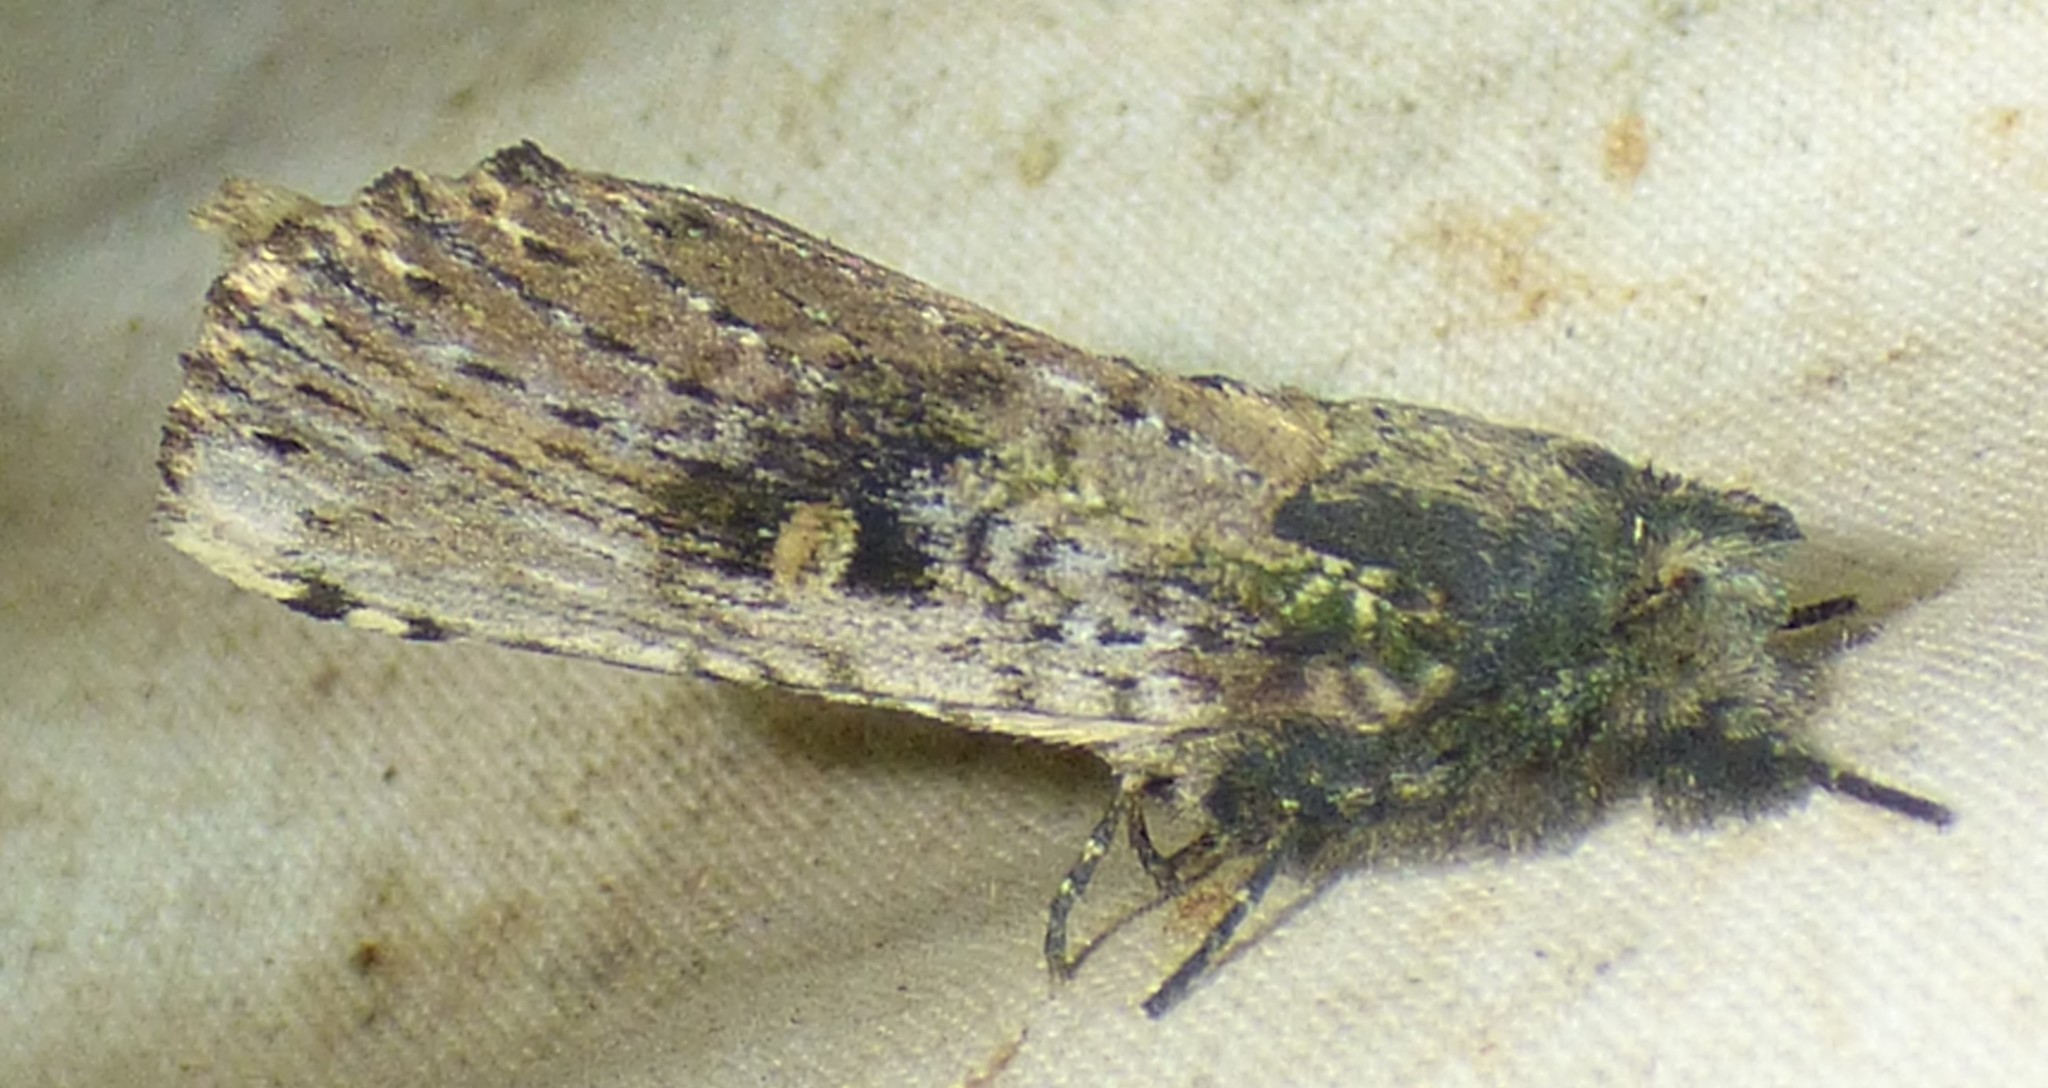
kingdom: Animalia
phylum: Arthropoda
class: Insecta
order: Lepidoptera
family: Notodontidae
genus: Schizura
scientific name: Schizura ipomaeae
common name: Morning-glory prominent
